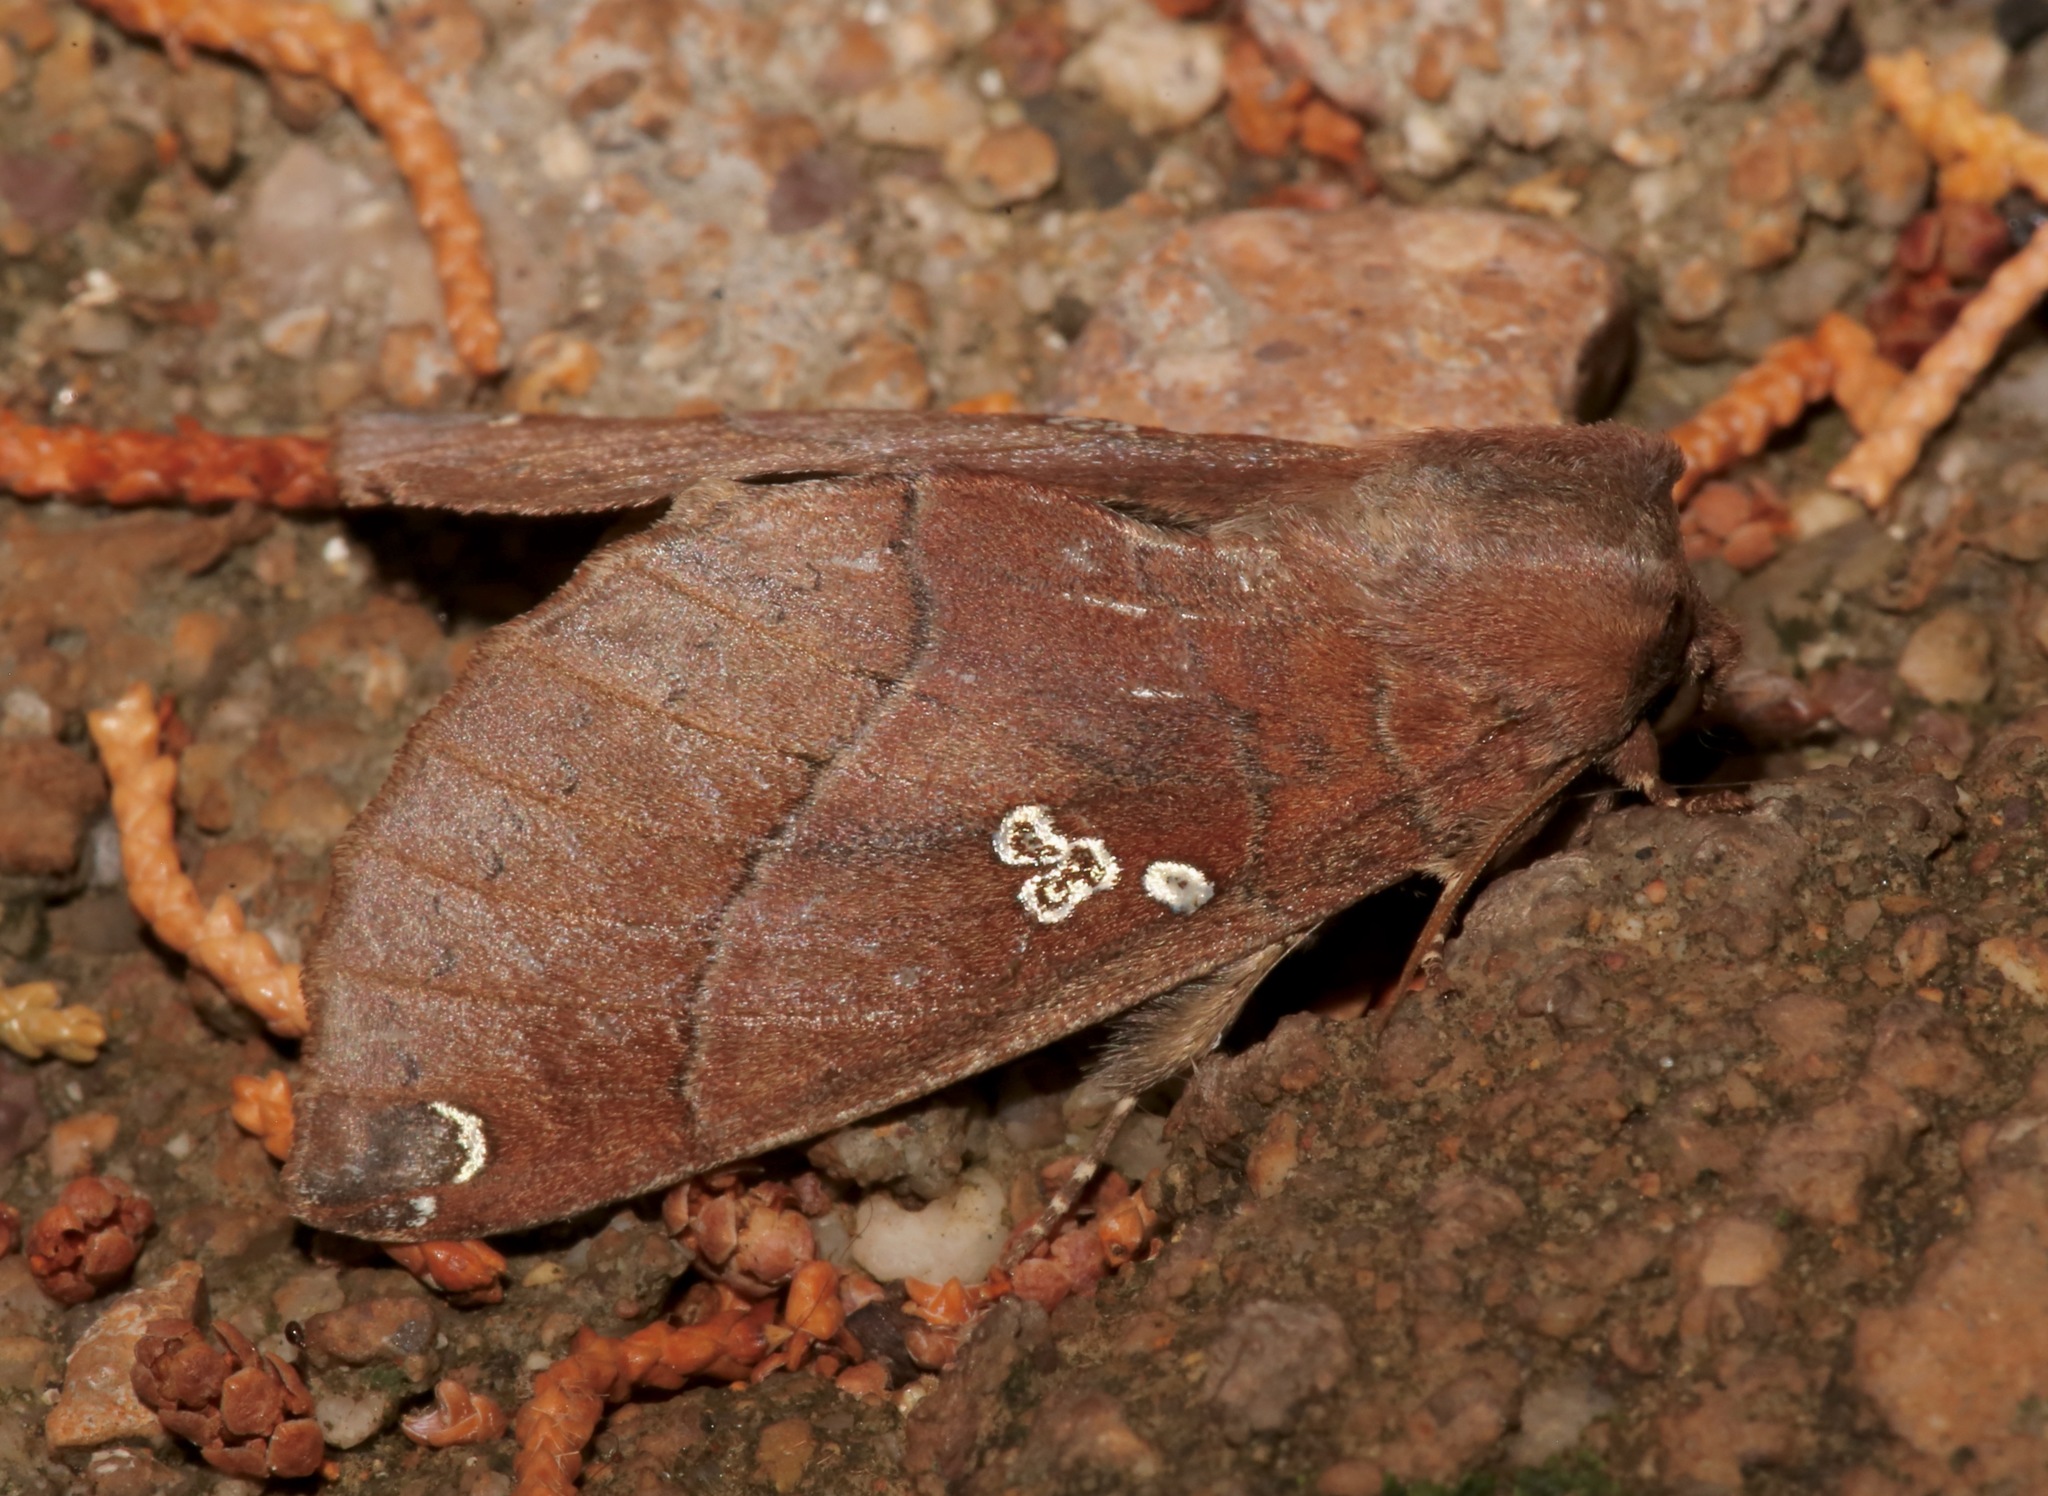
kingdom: Animalia
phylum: Arthropoda
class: Insecta
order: Lepidoptera
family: Notodontidae
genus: Pseudhapigia
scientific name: Pseudhapigia brunnea
